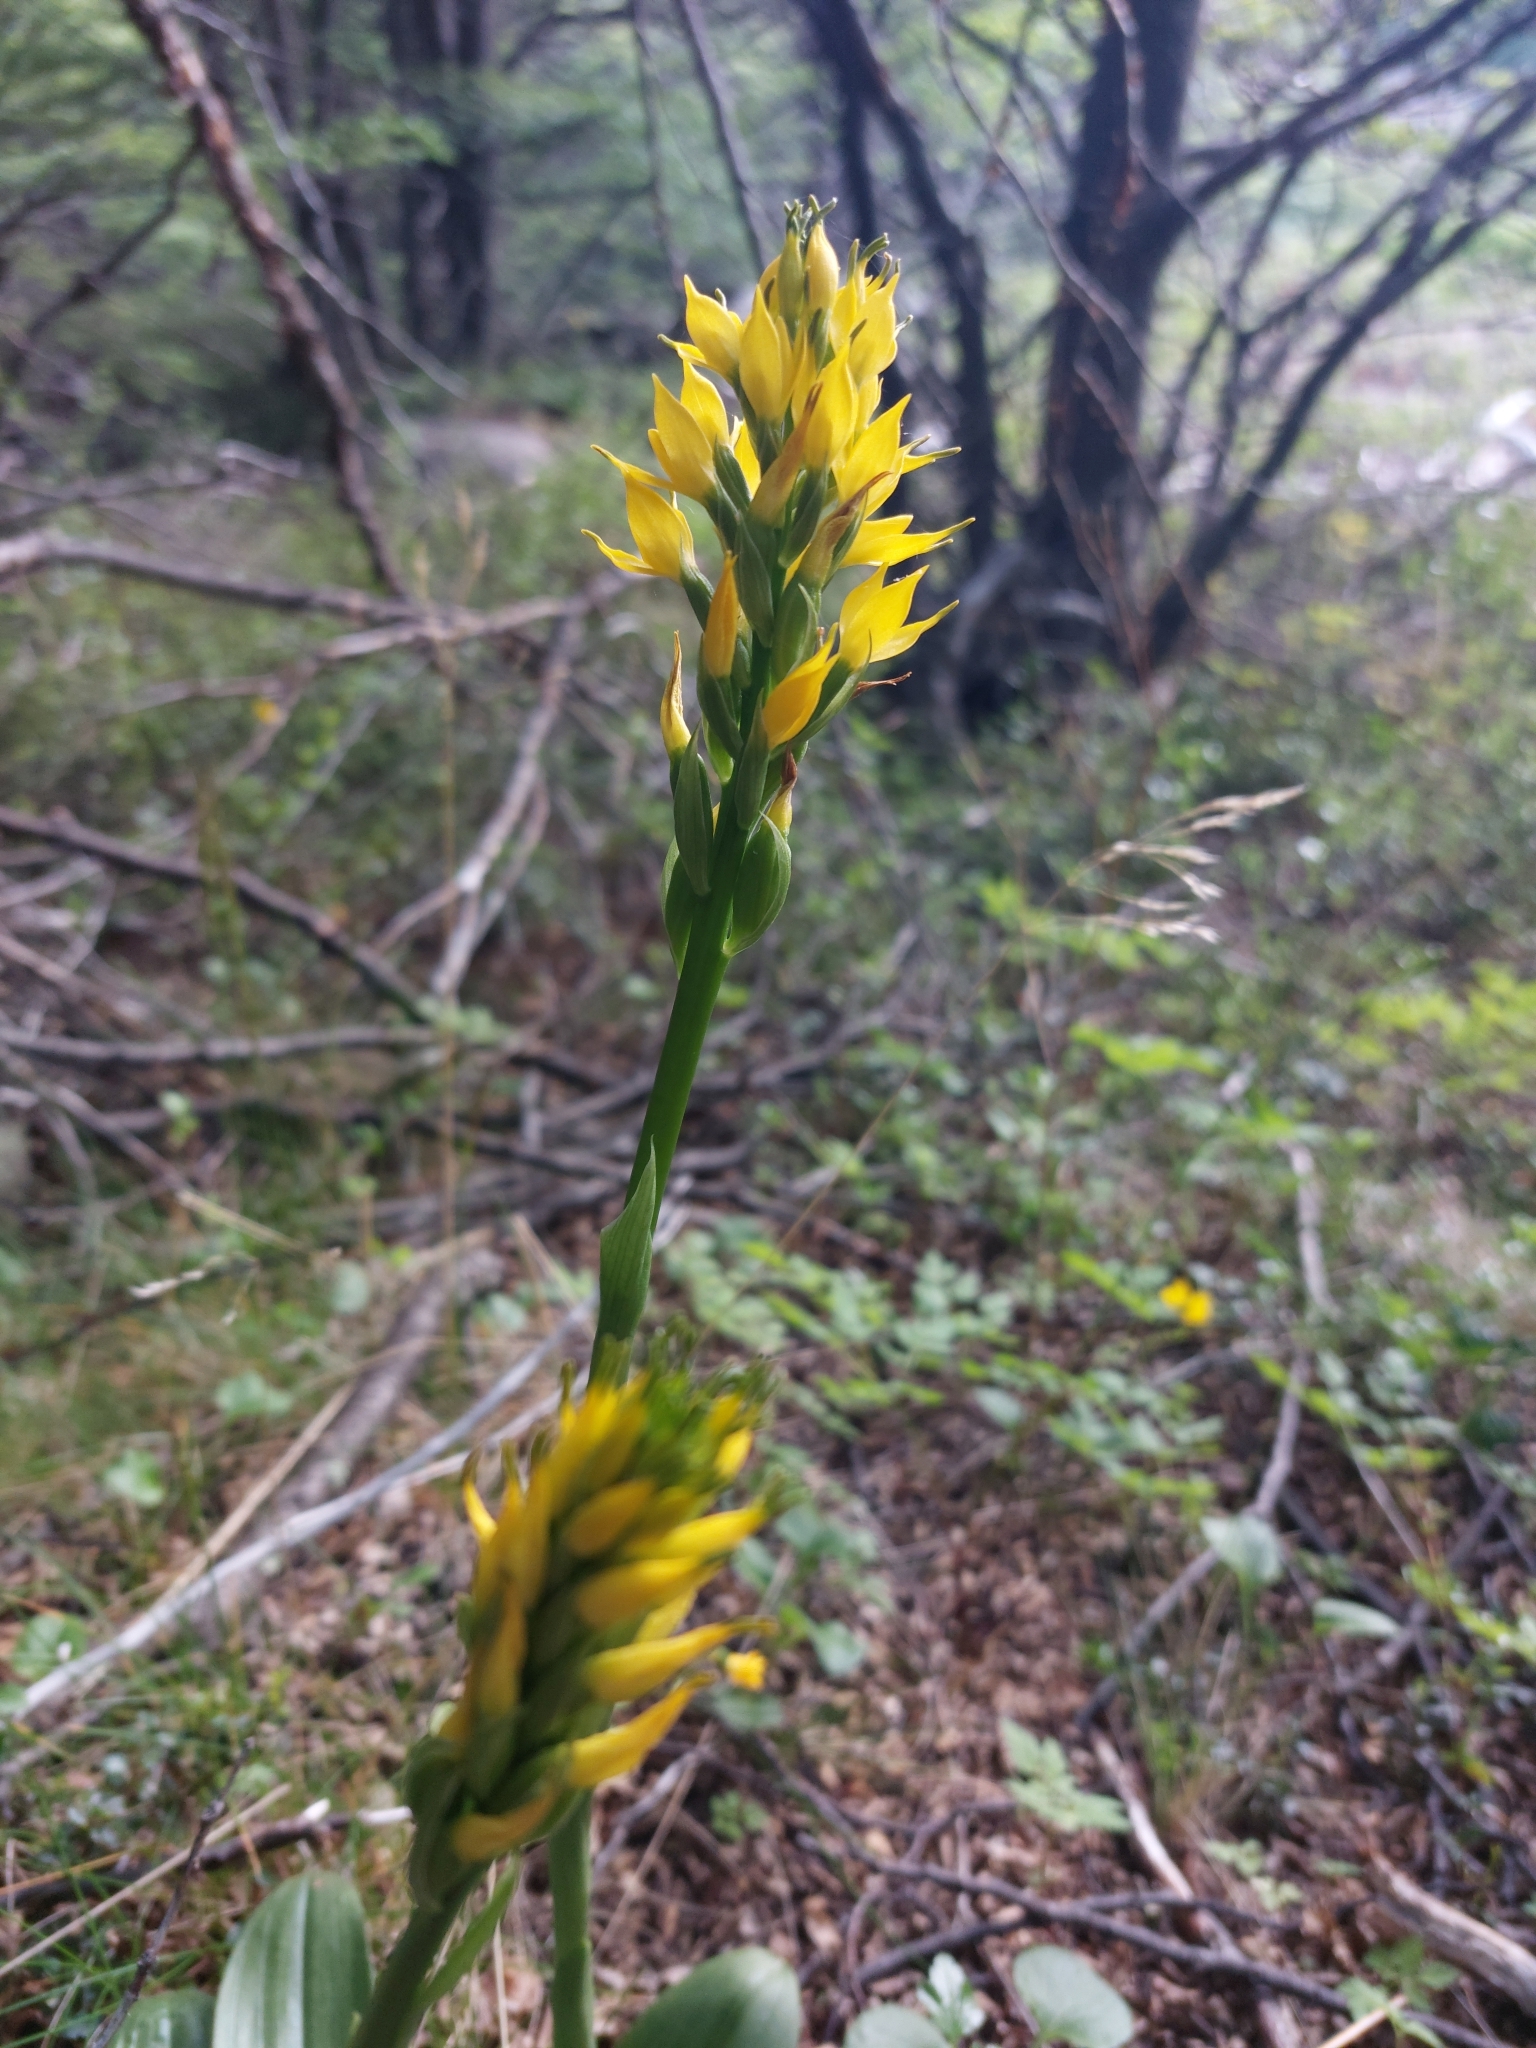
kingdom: Plantae
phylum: Tracheophyta
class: Liliopsida
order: Asparagales
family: Orchidaceae
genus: Gavilea
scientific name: Gavilea lutea
